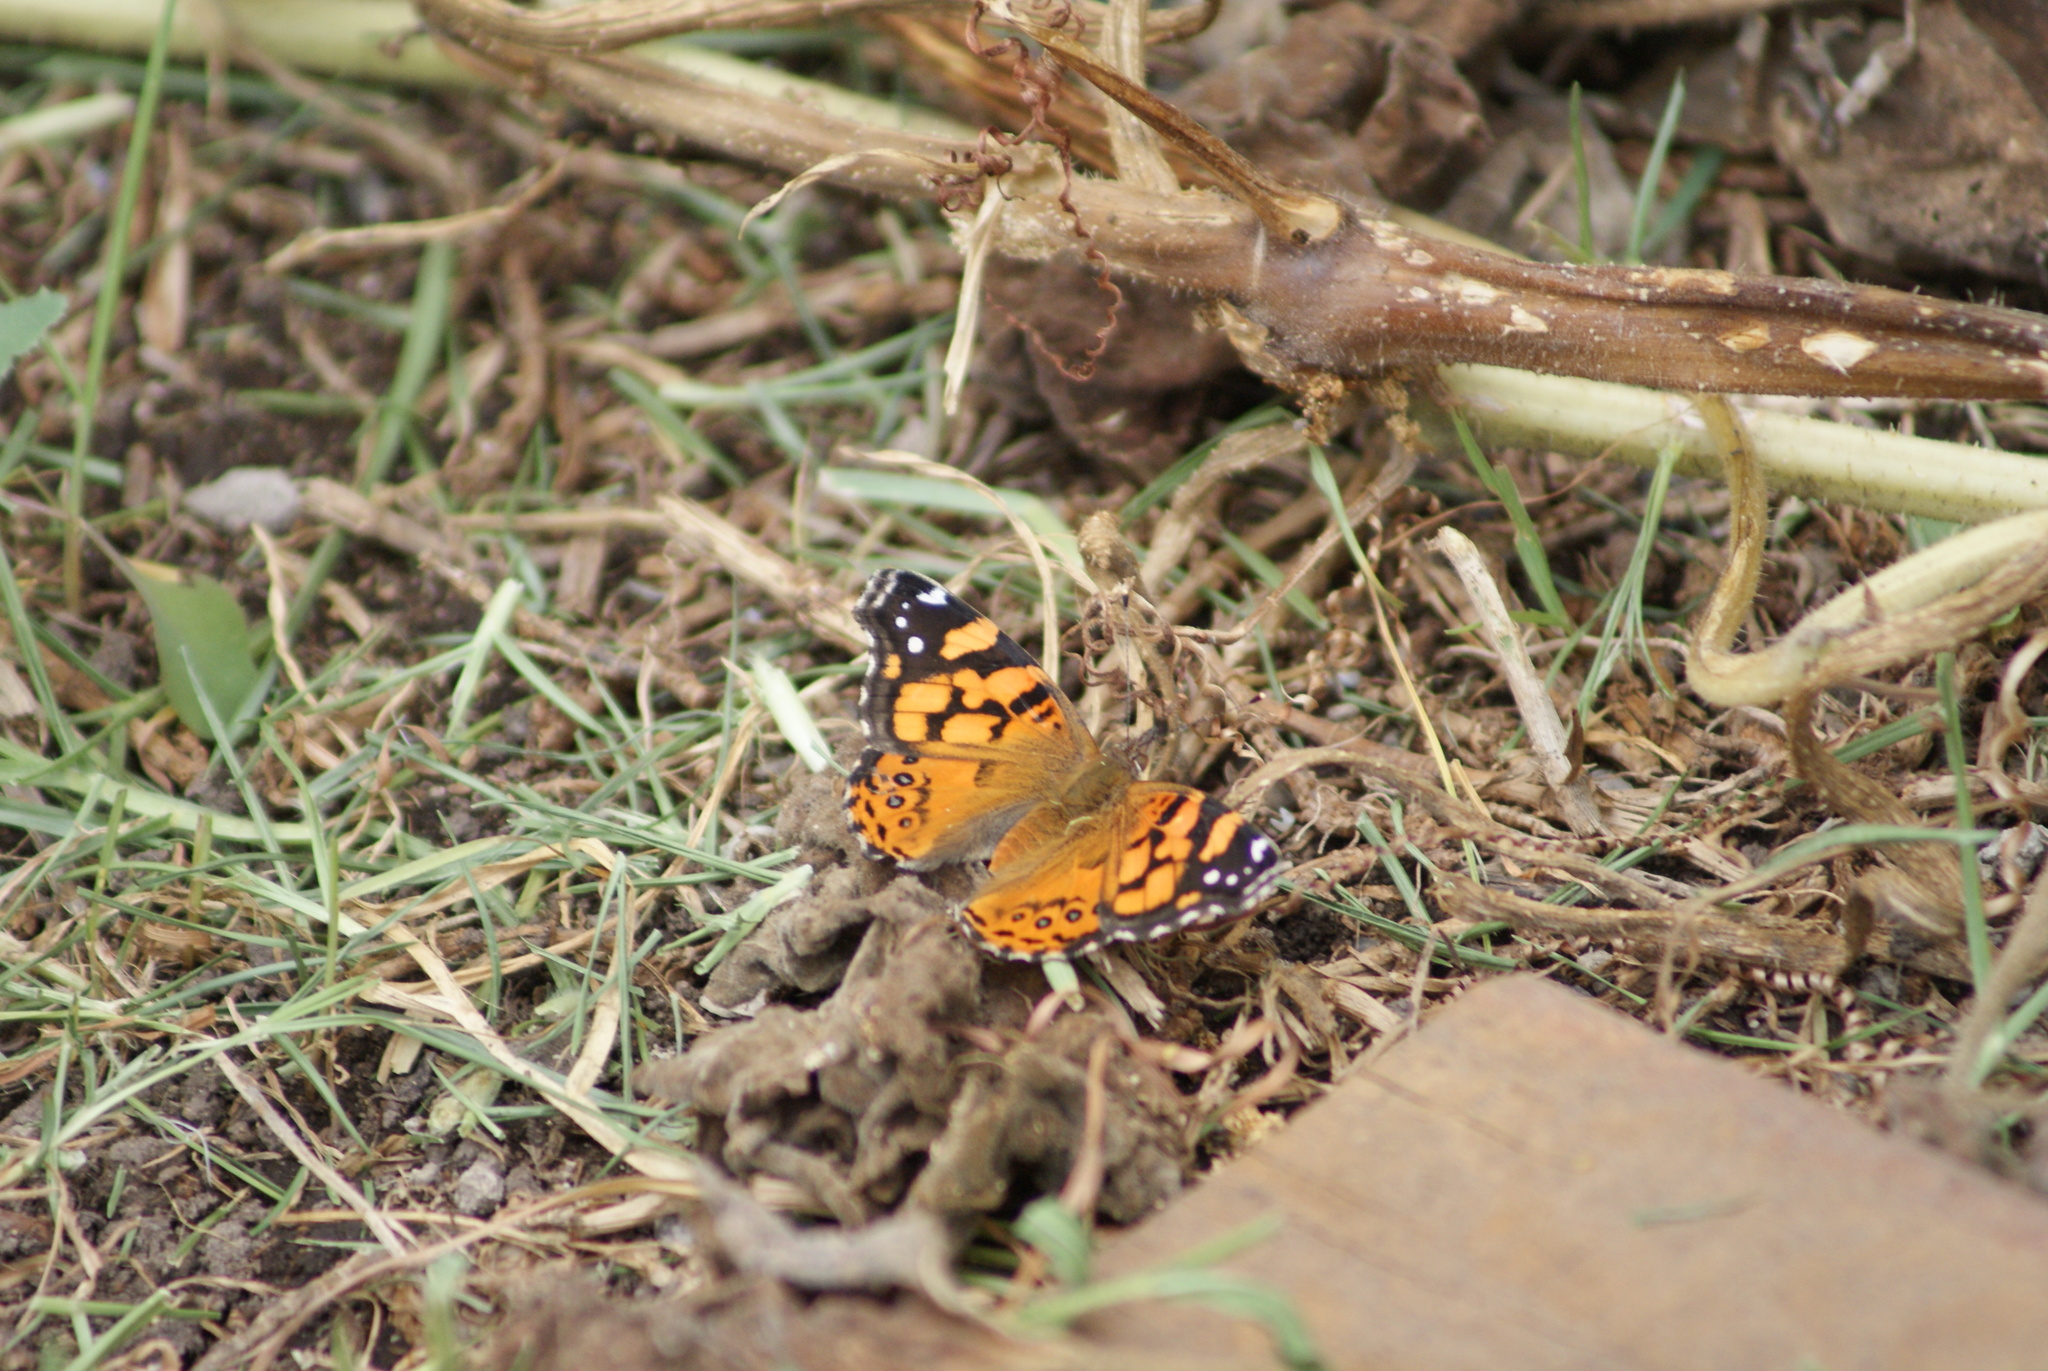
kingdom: Animalia
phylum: Arthropoda
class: Insecta
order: Lepidoptera
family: Nymphalidae
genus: Vanessa
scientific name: Vanessa annabella
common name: West coast lady
